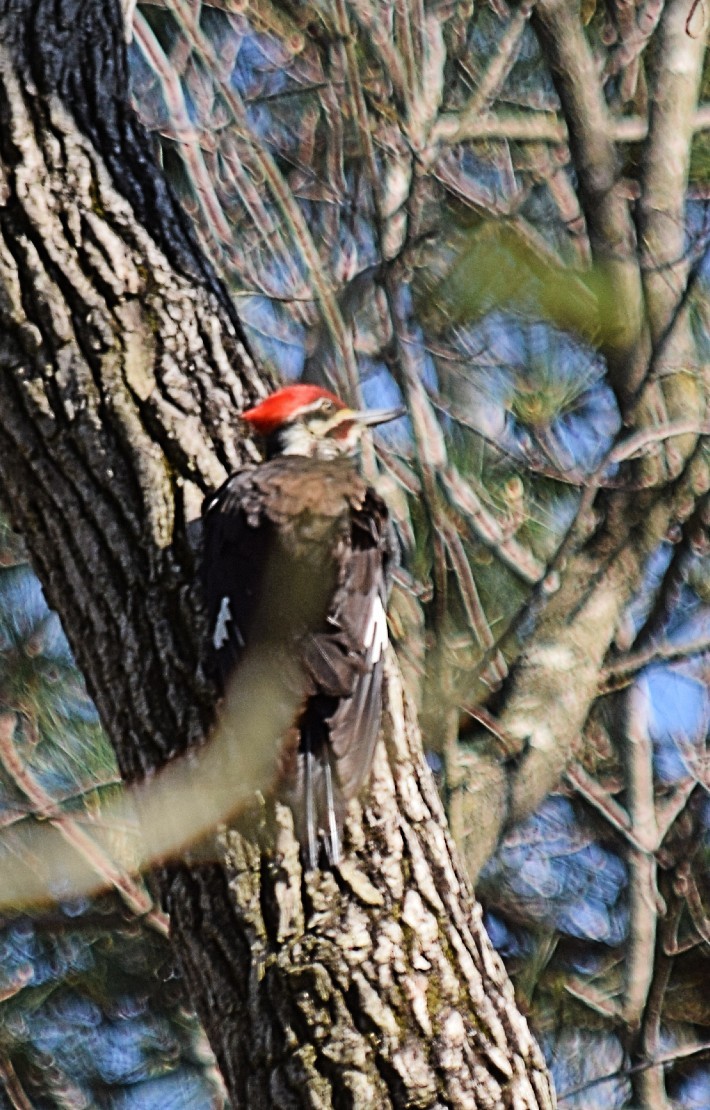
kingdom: Animalia
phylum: Chordata
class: Aves
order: Piciformes
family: Picidae
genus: Dryocopus
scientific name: Dryocopus pileatus
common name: Pileated woodpecker
